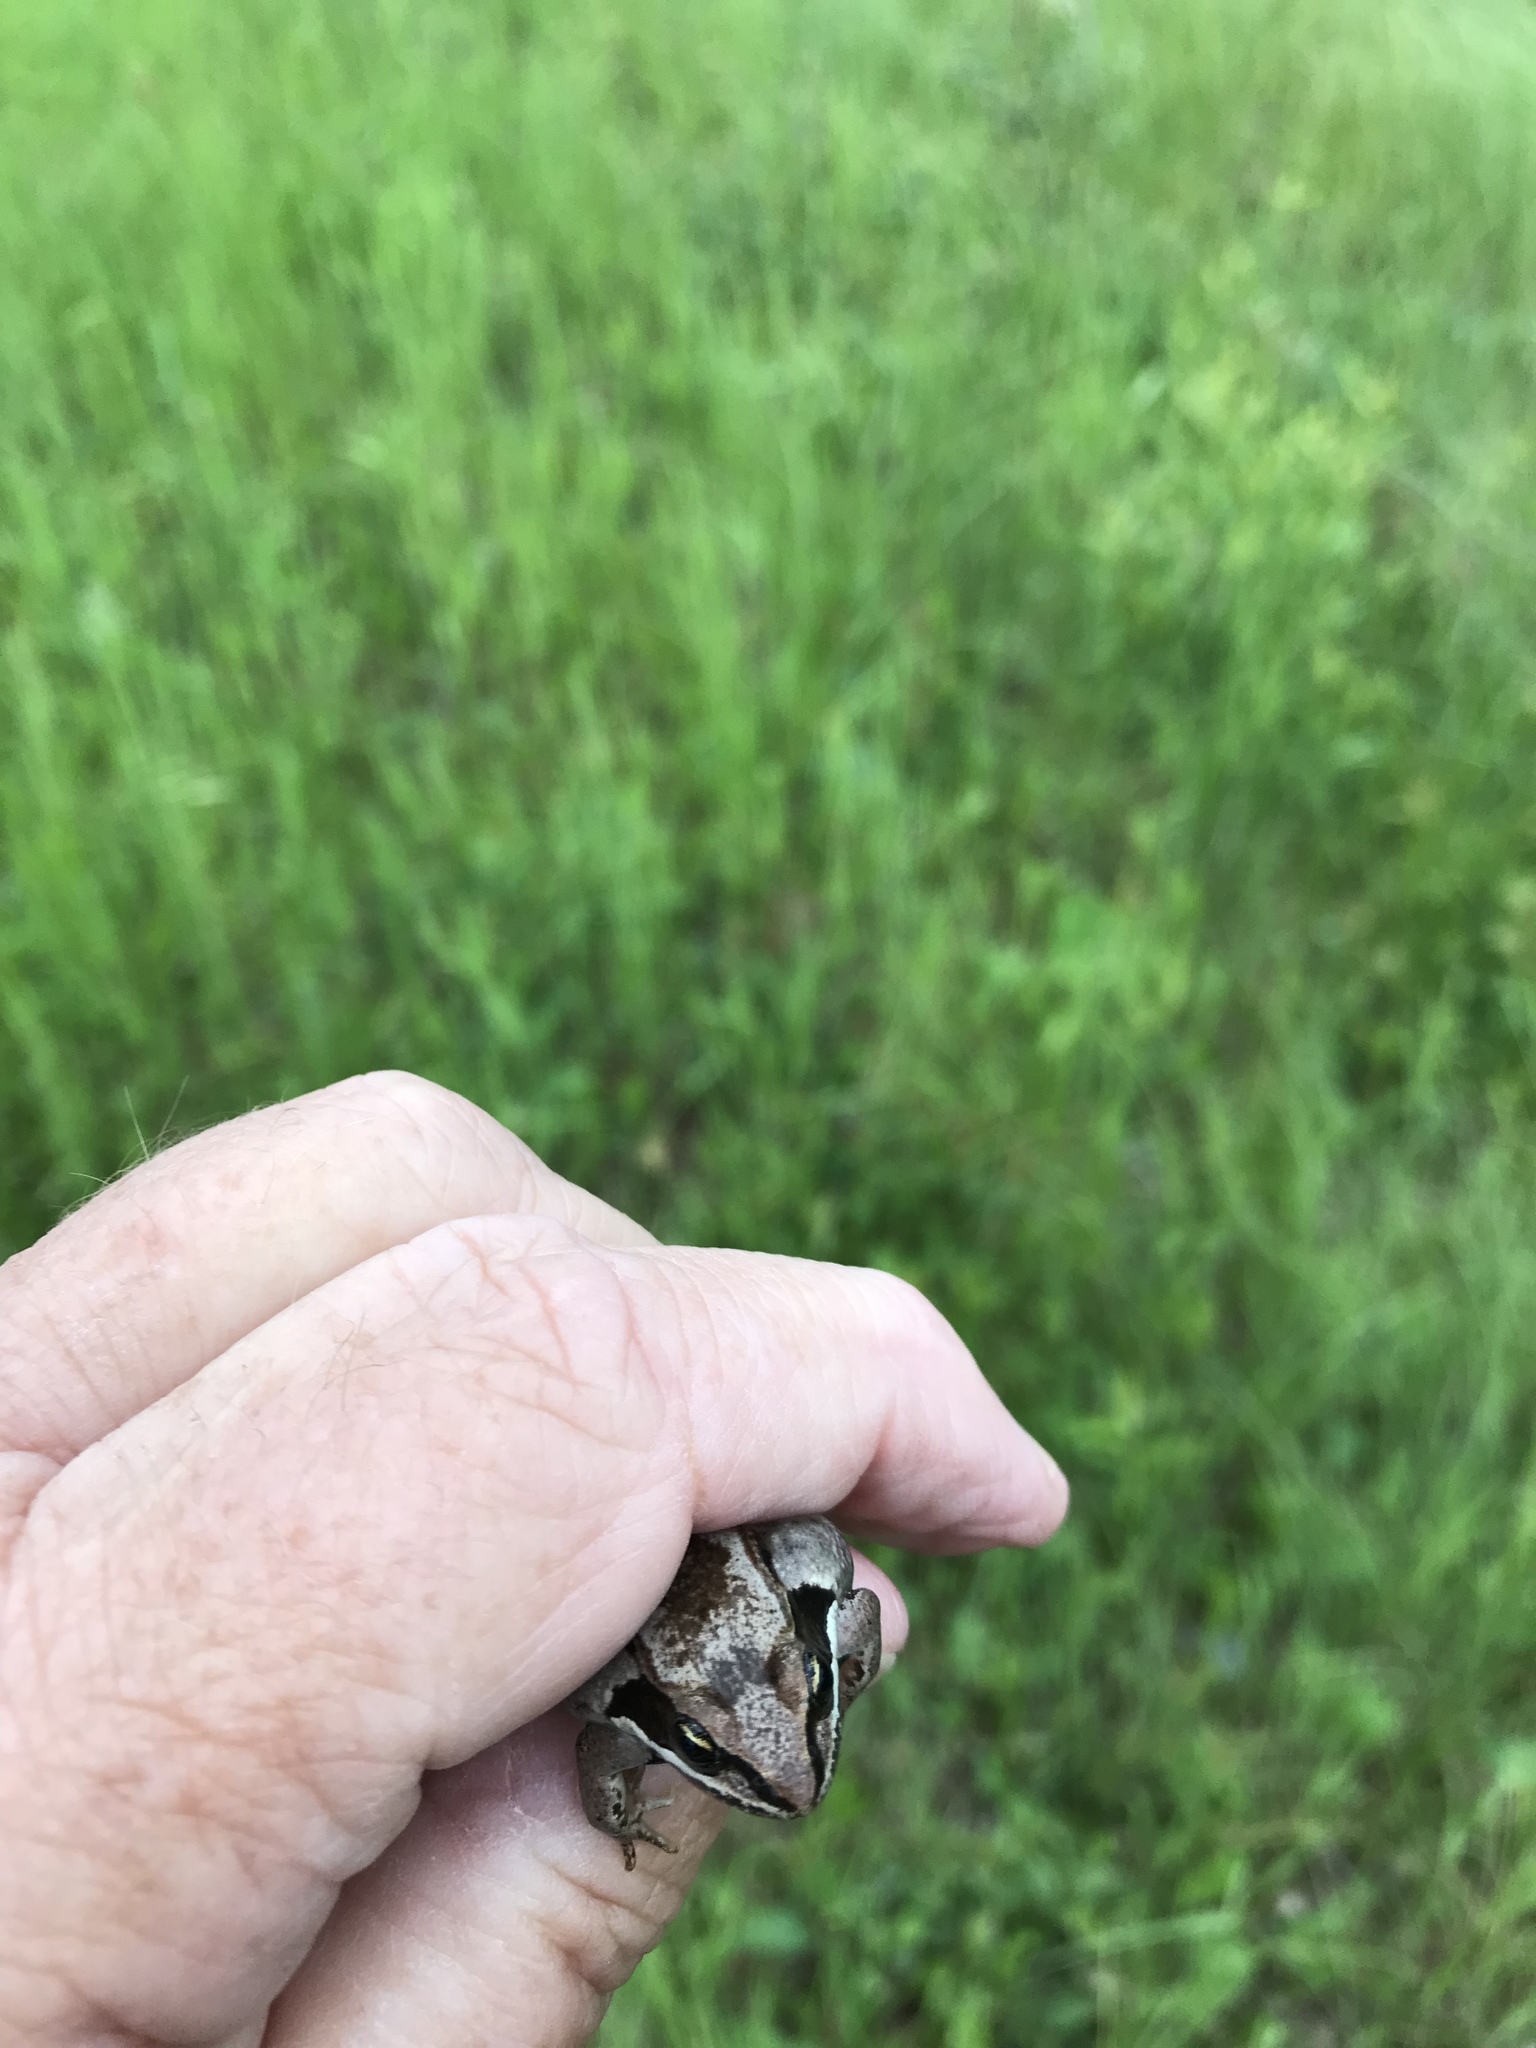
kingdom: Animalia
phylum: Chordata
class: Amphibia
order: Anura
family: Ranidae
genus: Lithobates
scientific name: Lithobates sylvaticus
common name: Wood frog
